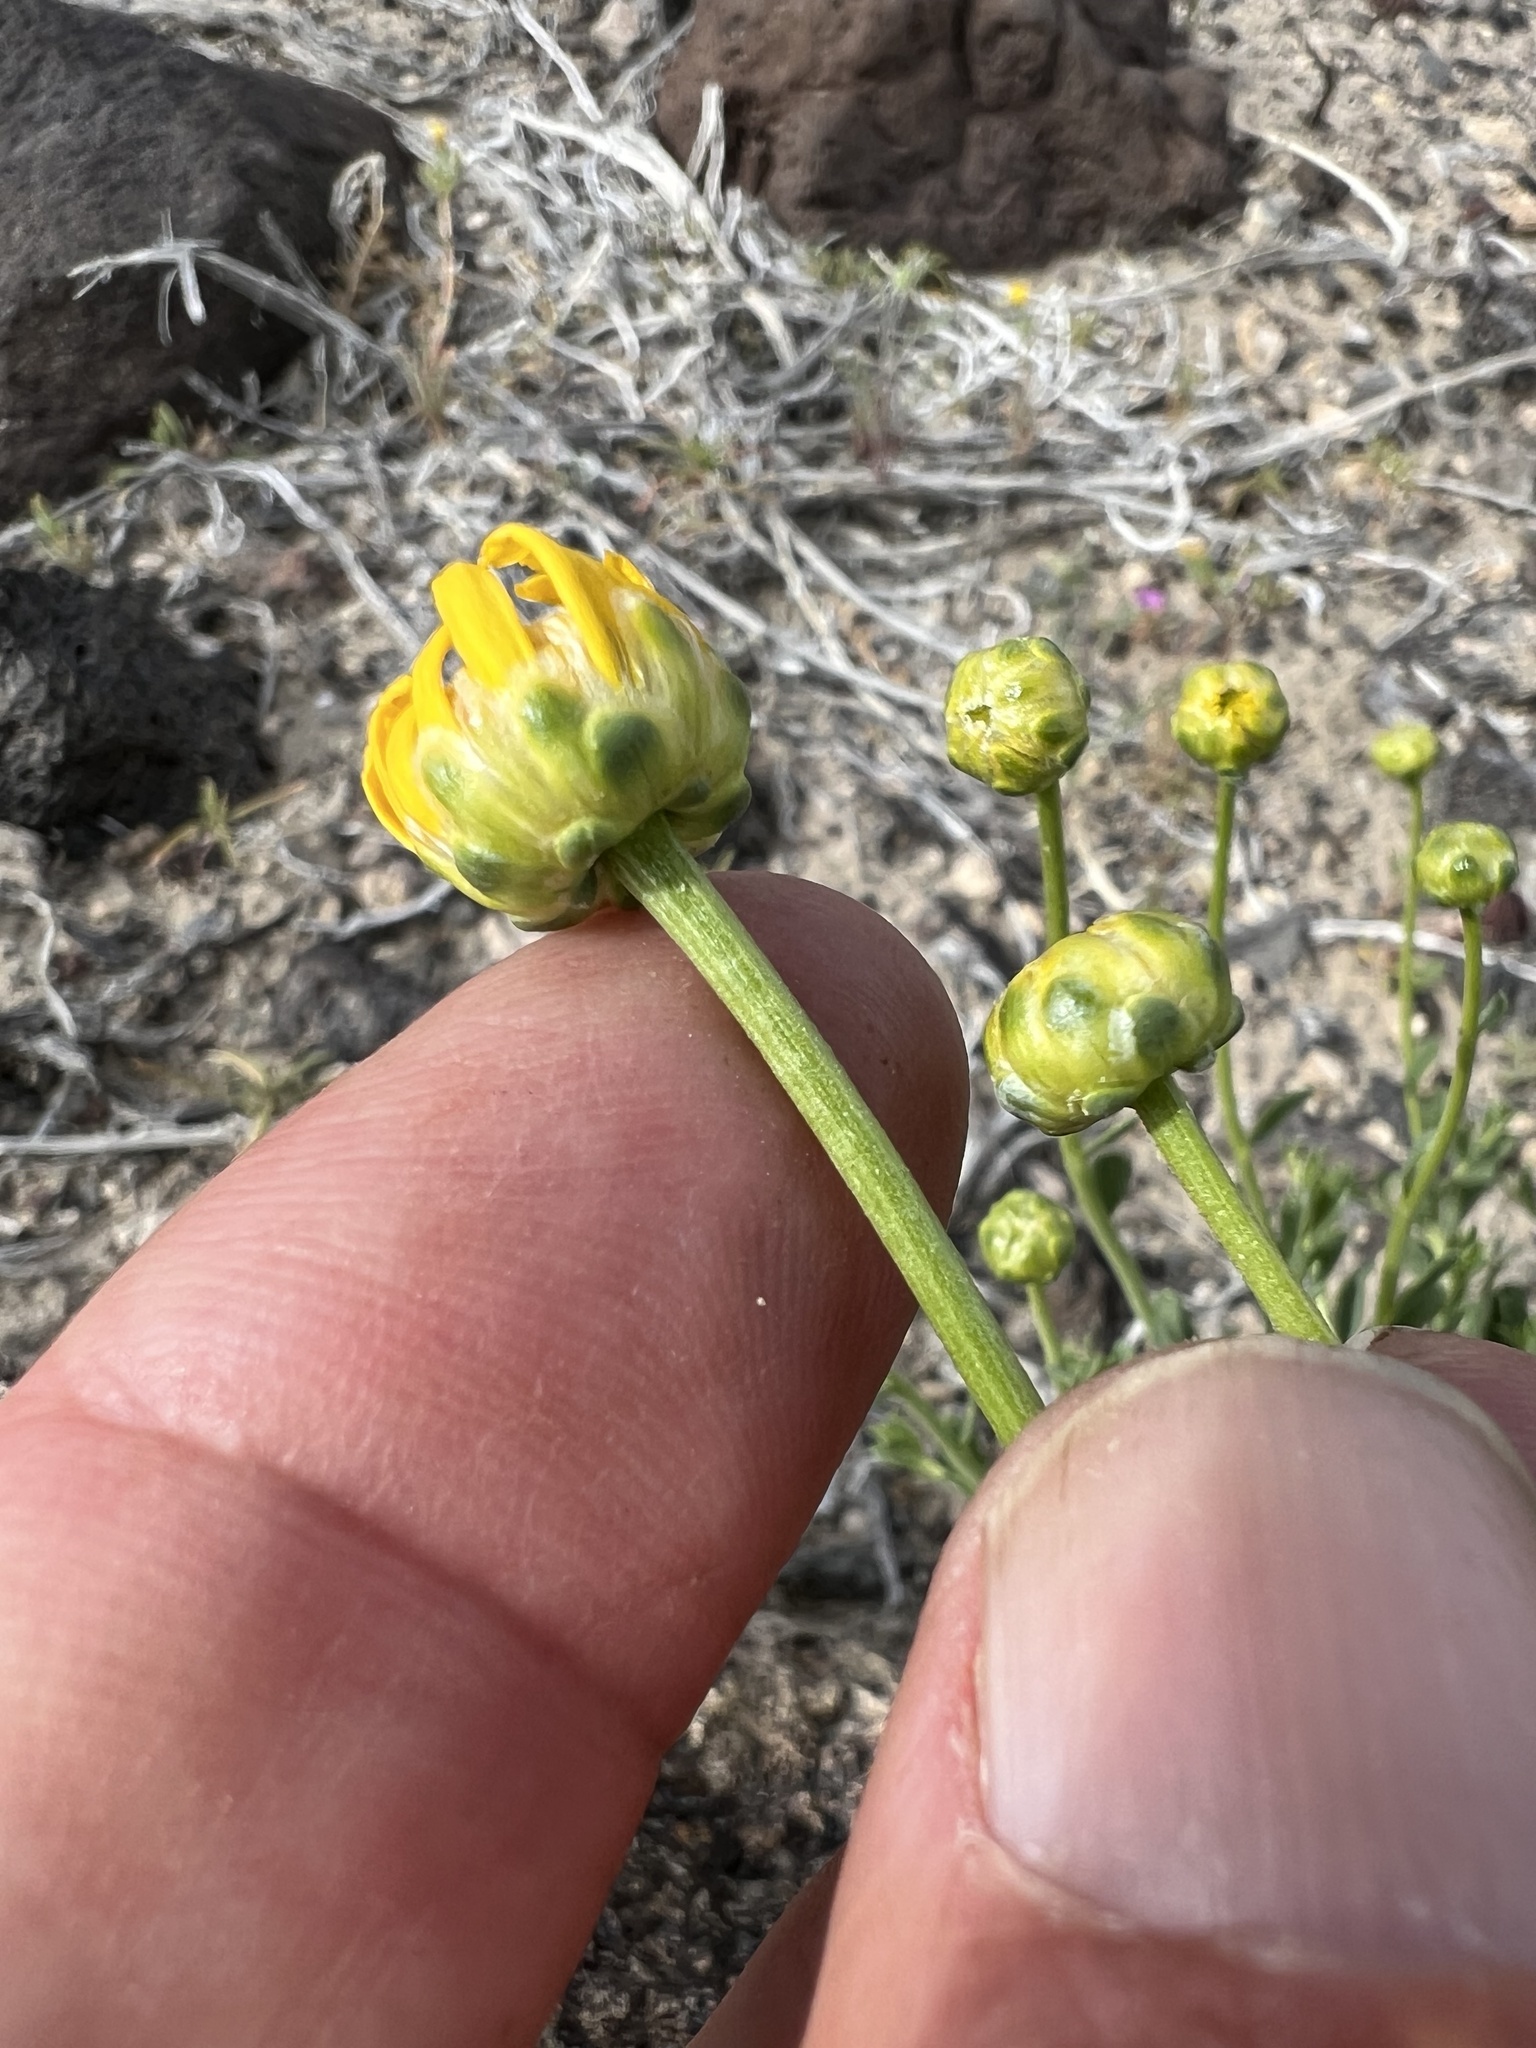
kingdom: Plantae
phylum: Tracheophyta
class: Magnoliopsida
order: Asterales
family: Asteraceae
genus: Acamptopappus
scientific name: Acamptopappus shockleyi
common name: Shockley's goldenhead
